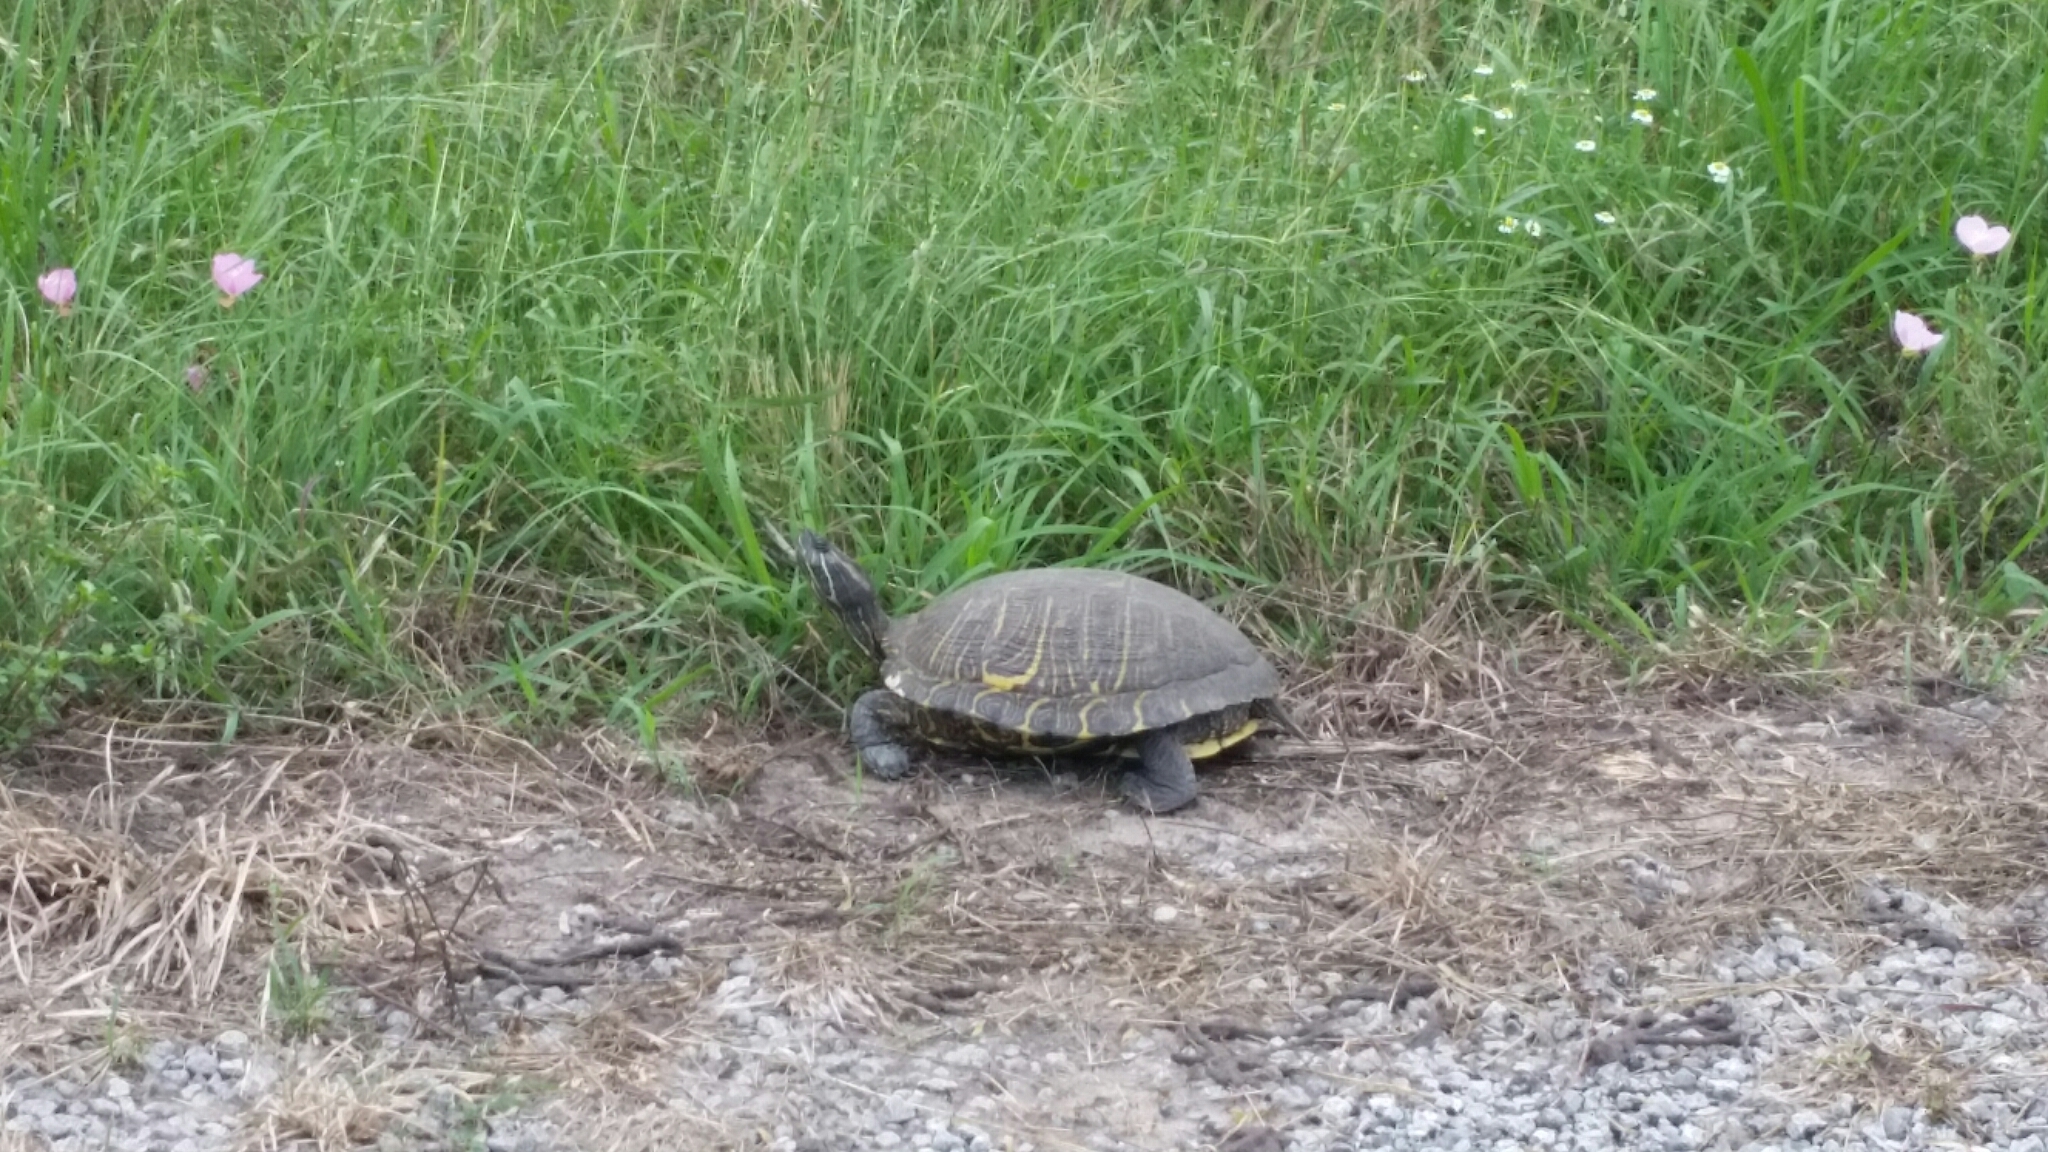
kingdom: Animalia
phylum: Chordata
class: Testudines
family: Emydidae
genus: Trachemys
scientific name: Trachemys scripta
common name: Slider
